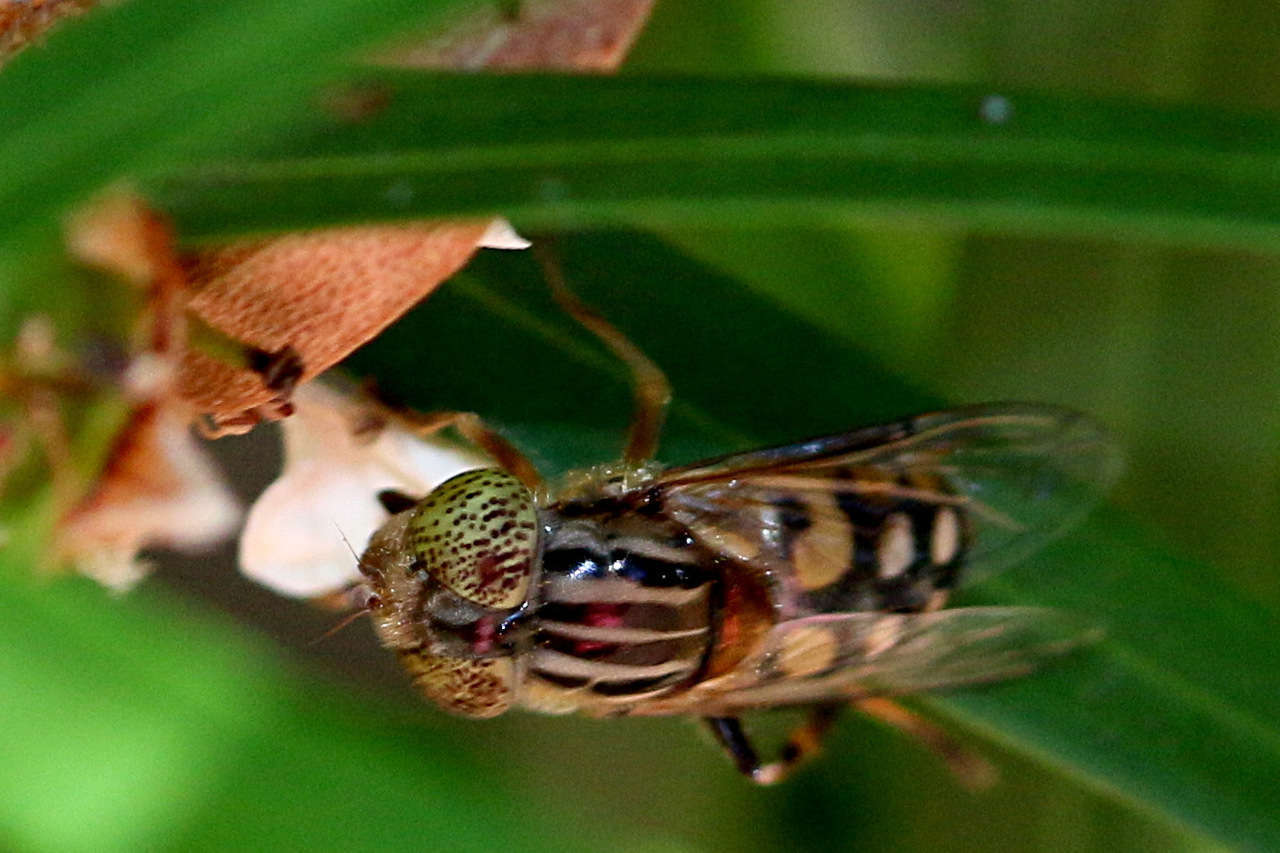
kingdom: Animalia
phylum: Arthropoda
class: Insecta
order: Diptera
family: Syrphidae
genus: Eristalinus
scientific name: Eristalinus punctulatus
